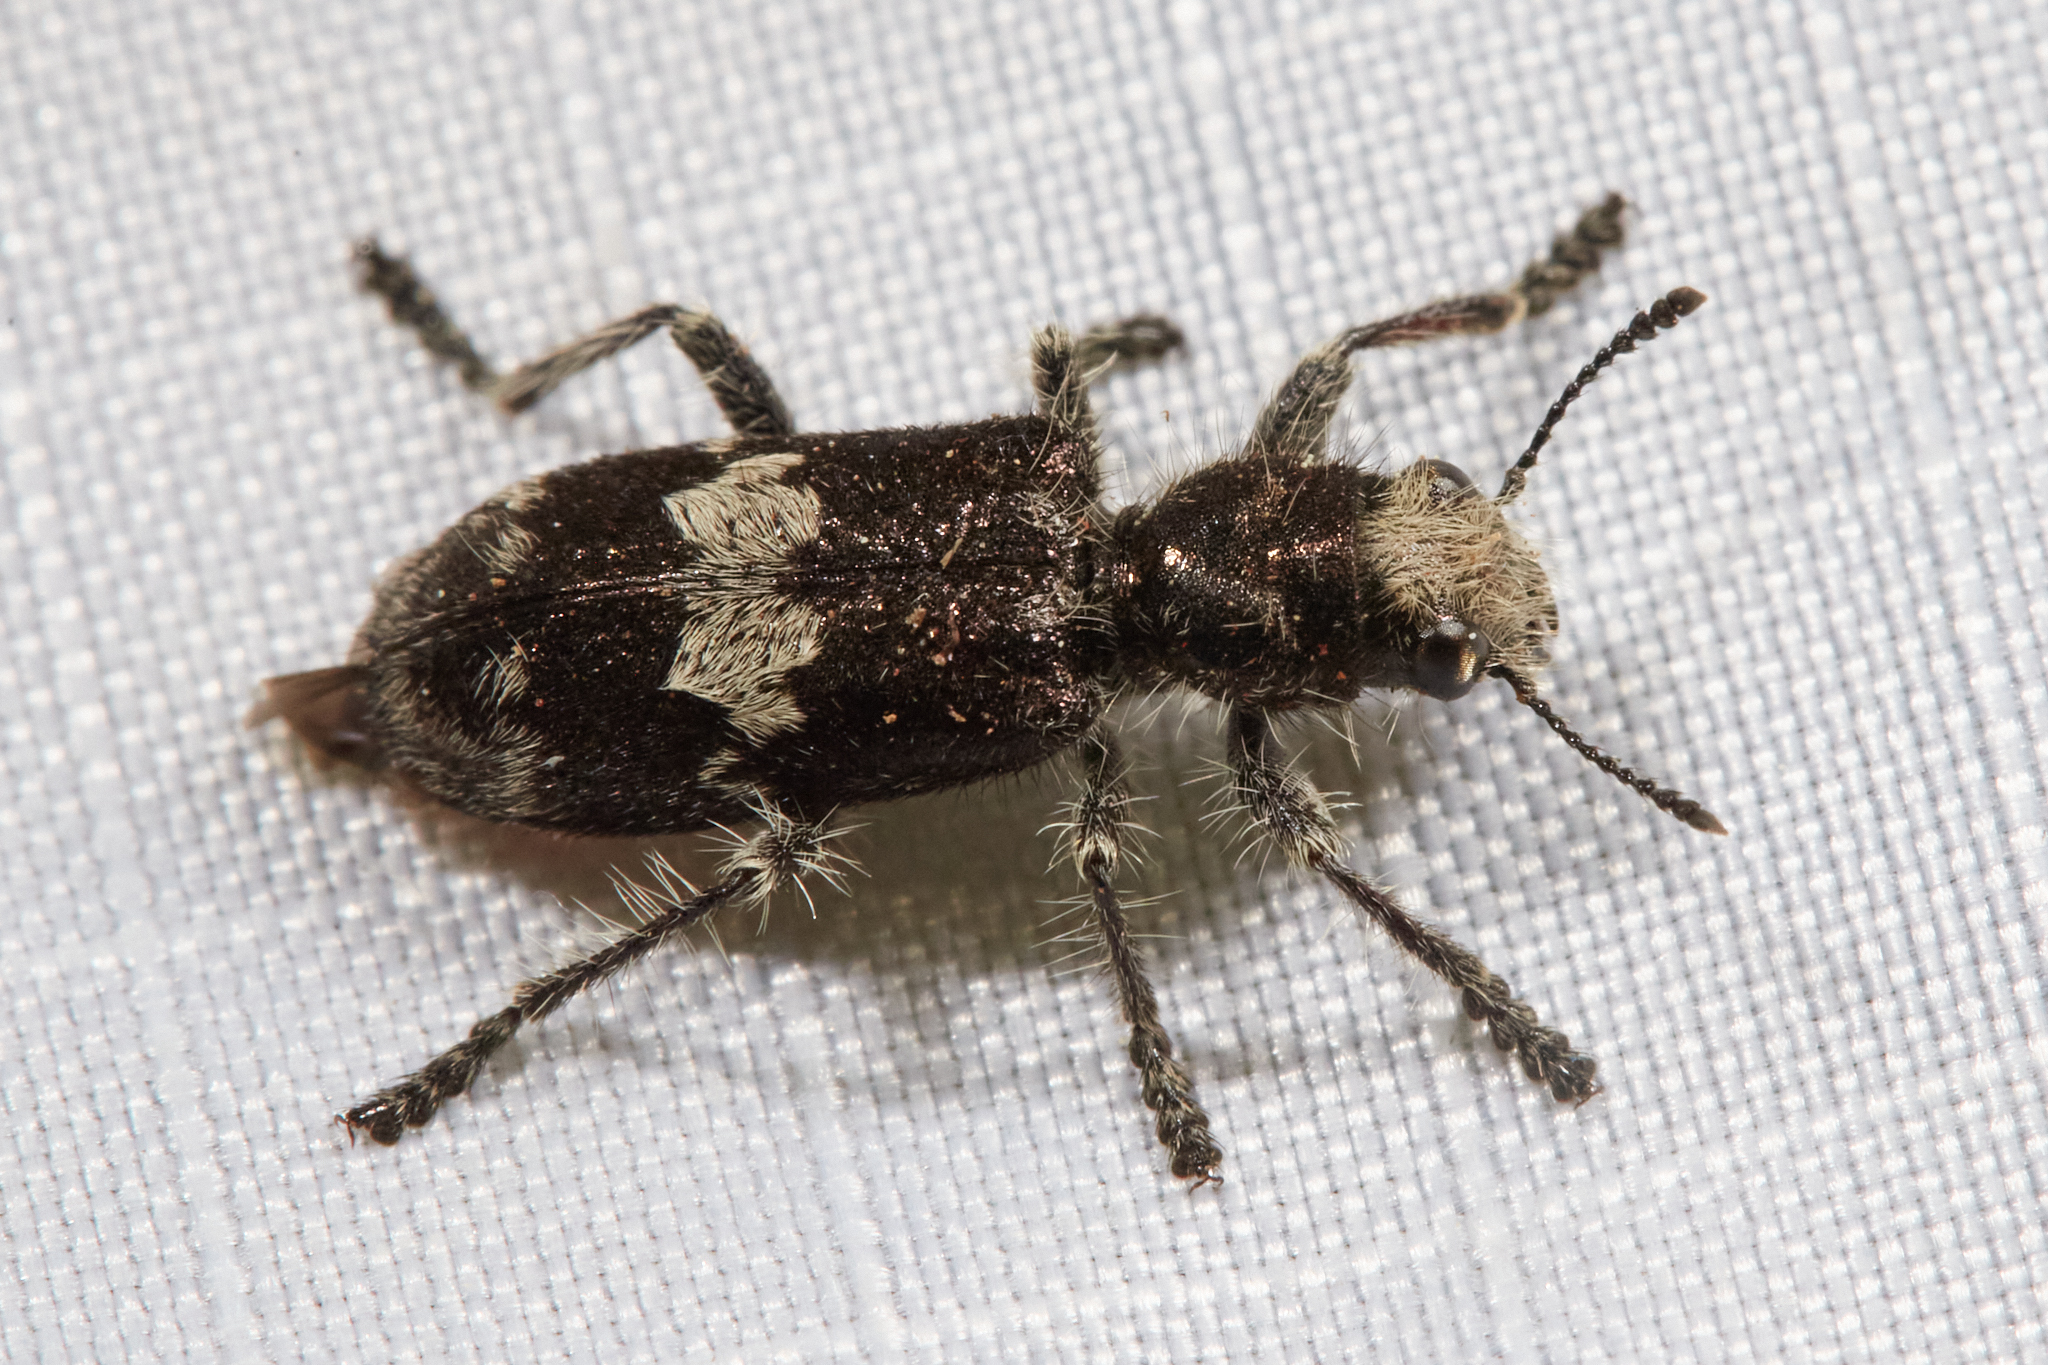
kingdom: Animalia
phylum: Arthropoda
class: Insecta
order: Coleoptera
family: Cleridae
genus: Enoclerus
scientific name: Enoclerus sphegeus
